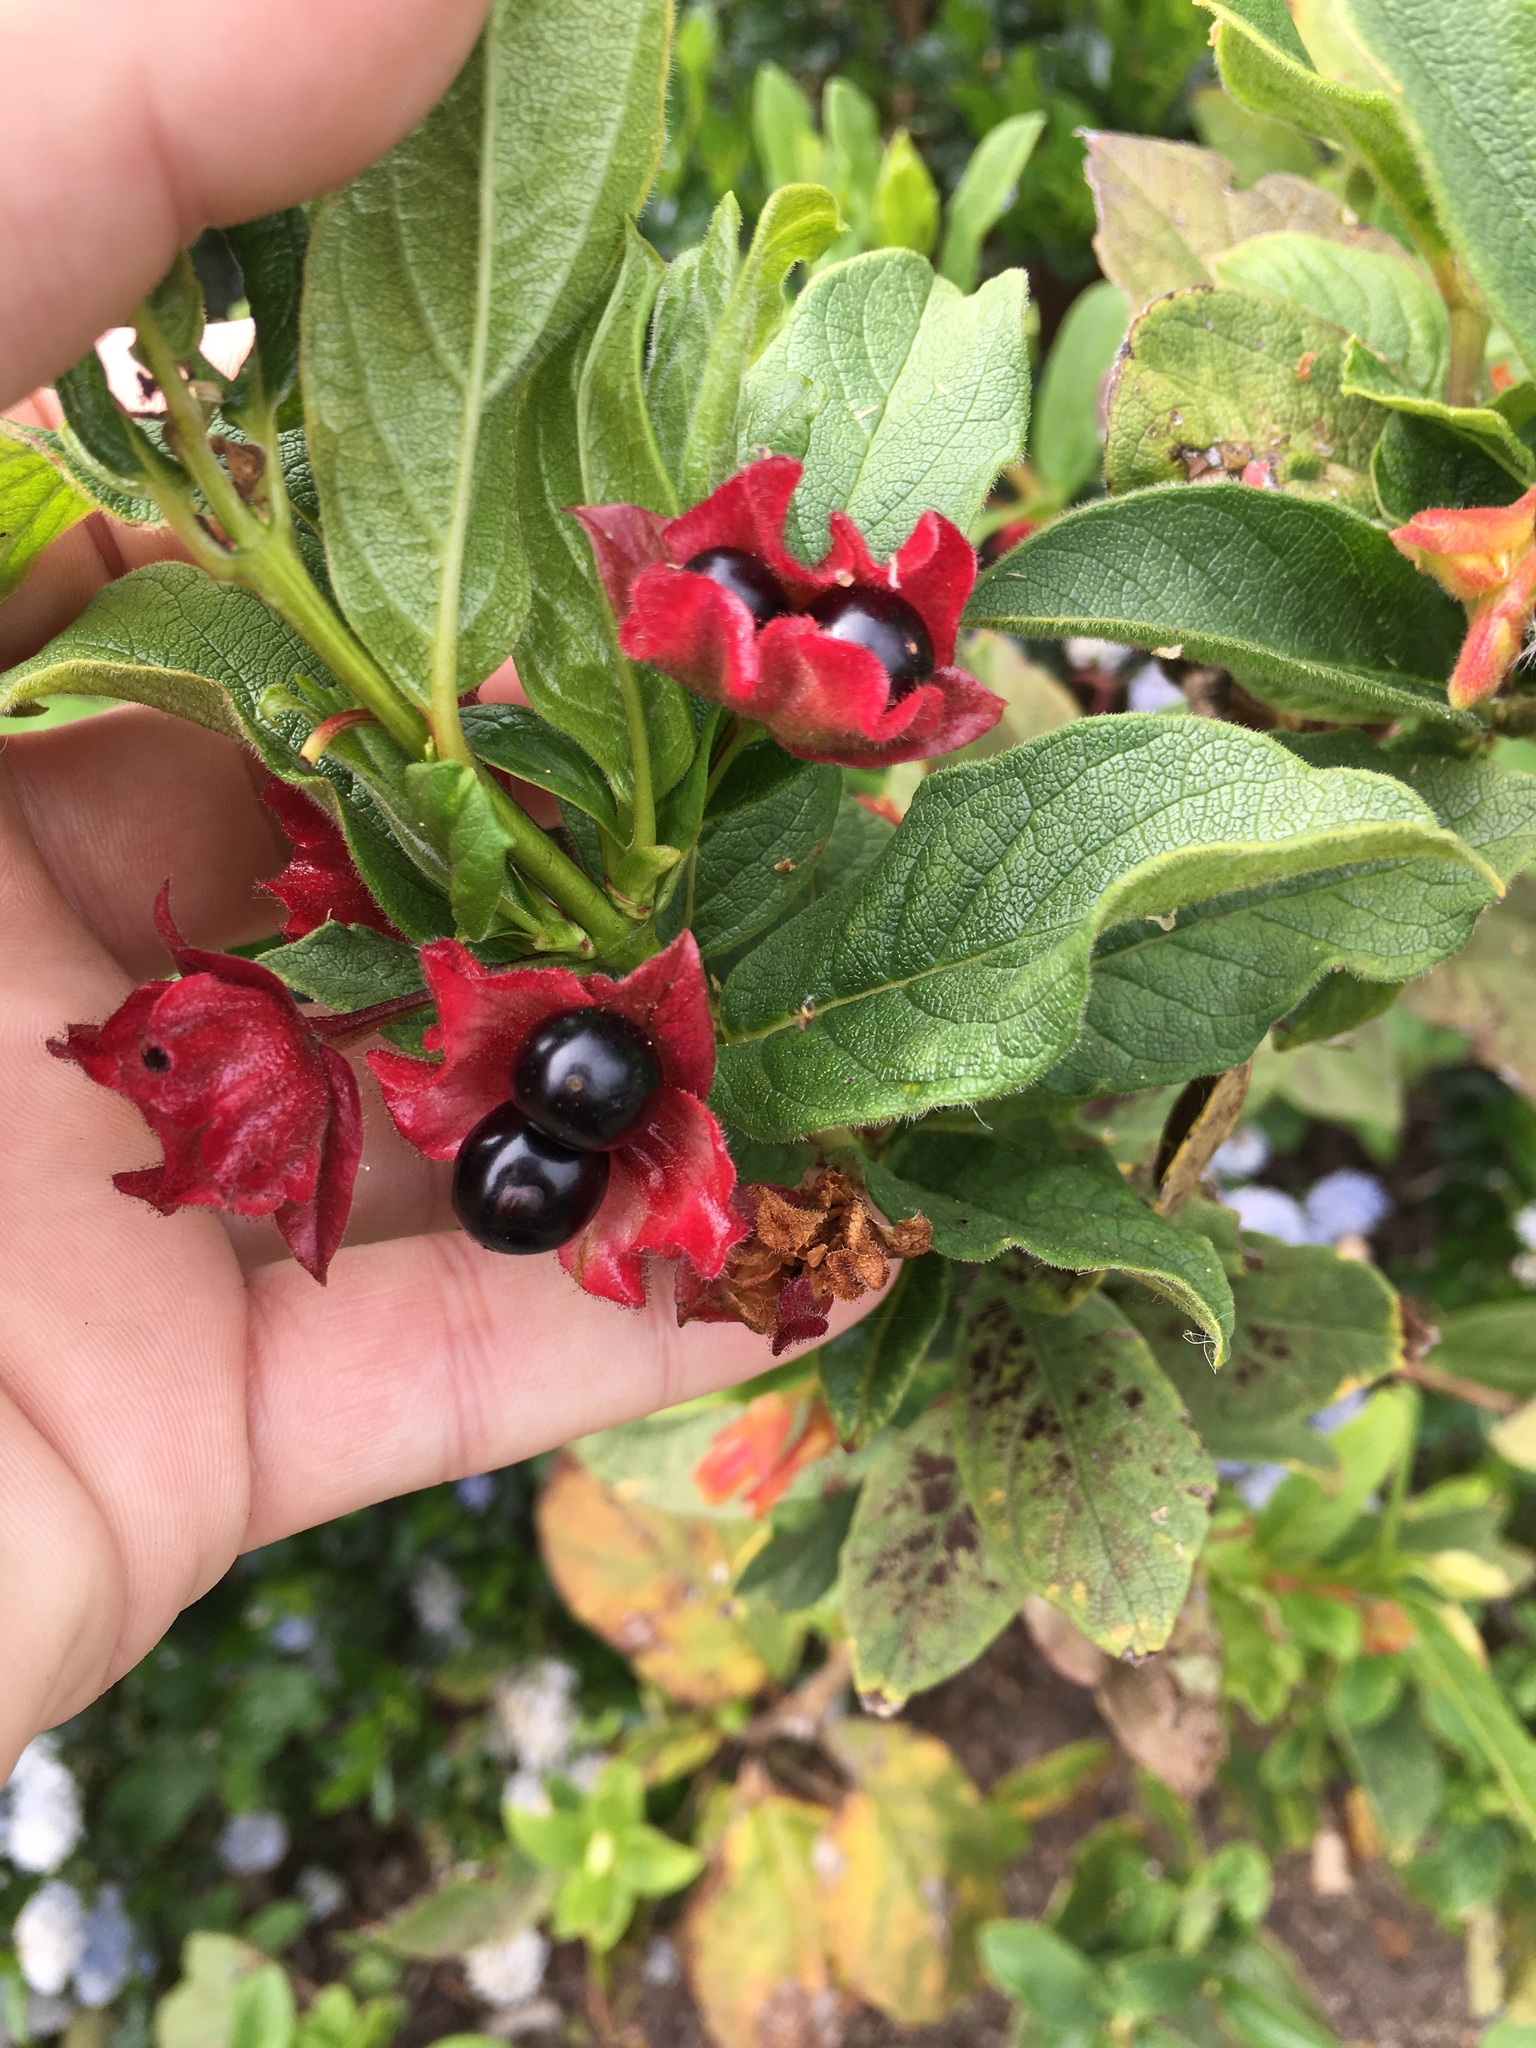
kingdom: Plantae
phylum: Tracheophyta
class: Magnoliopsida
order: Dipsacales
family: Caprifoliaceae
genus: Lonicera
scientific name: Lonicera involucrata
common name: Californian honeysuckle
